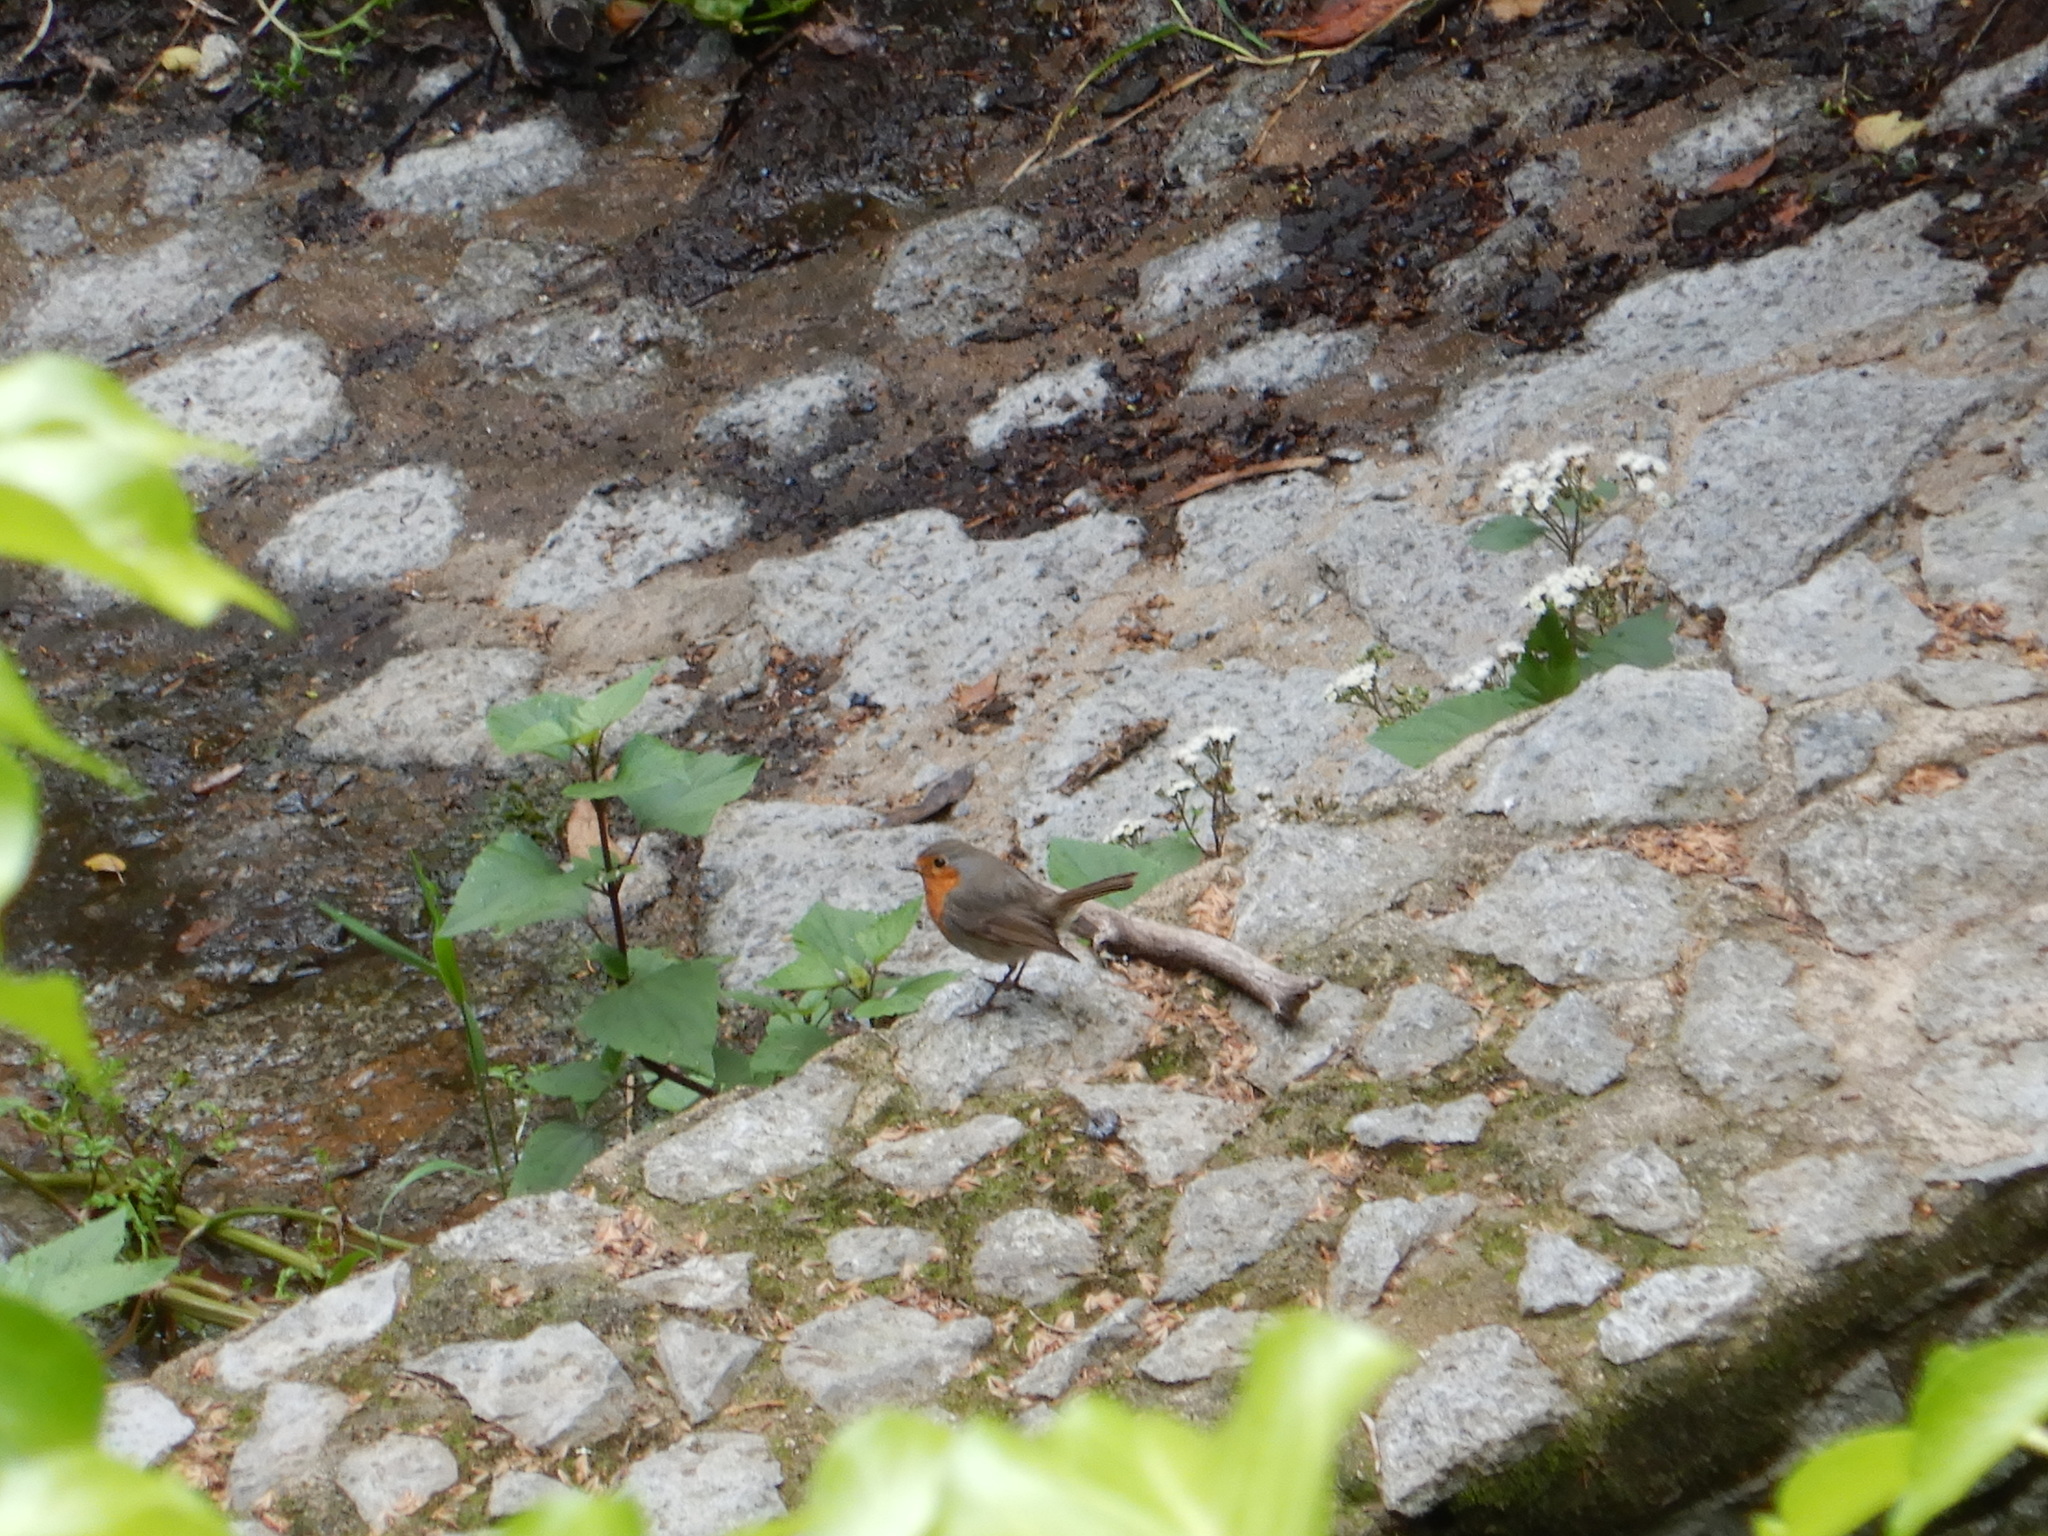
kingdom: Animalia
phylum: Chordata
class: Aves
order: Passeriformes
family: Muscicapidae
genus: Erithacus
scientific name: Erithacus rubecula
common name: European robin
